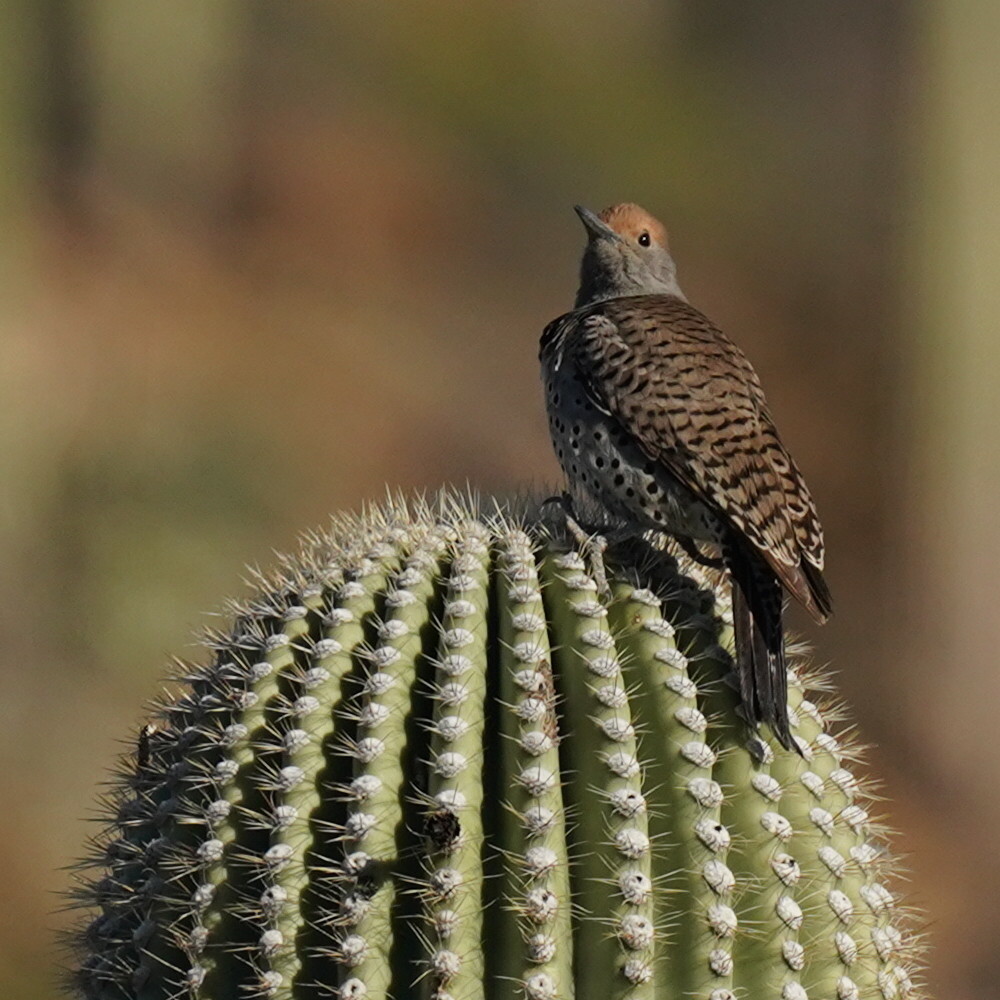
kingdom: Animalia
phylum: Chordata
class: Aves
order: Piciformes
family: Picidae
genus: Colaptes
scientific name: Colaptes chrysoides
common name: Gilded flicker
